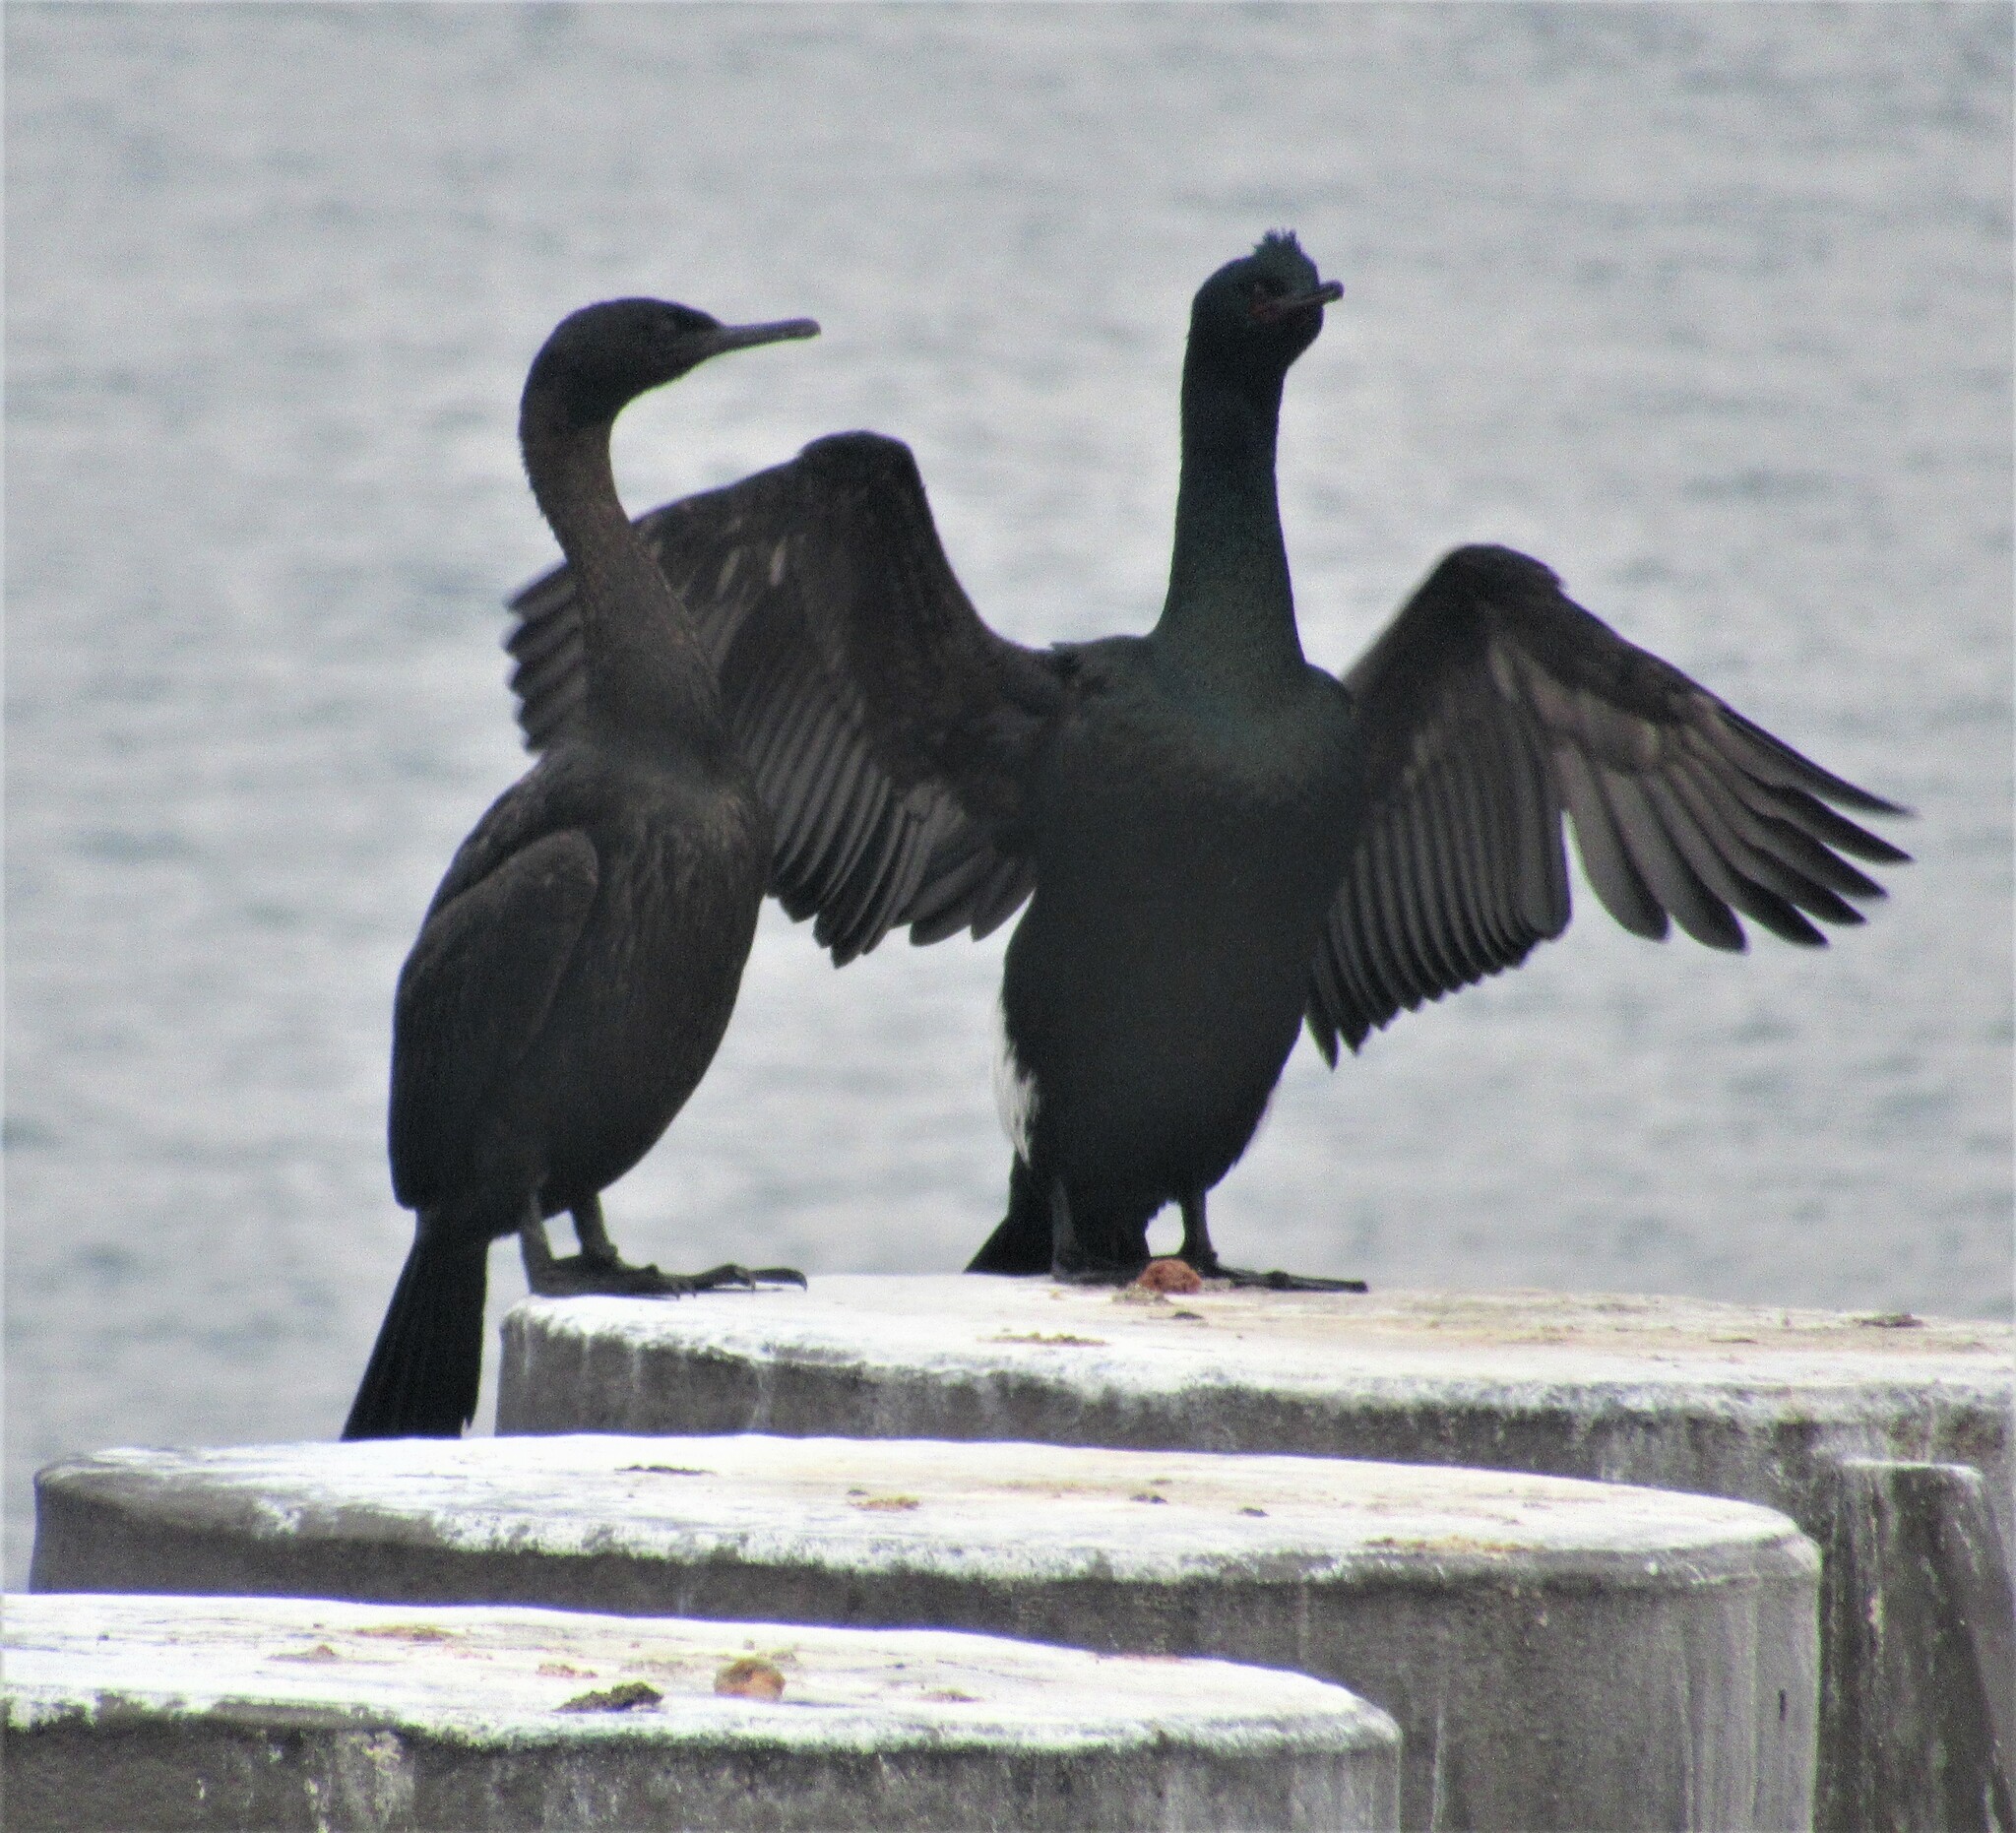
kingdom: Animalia
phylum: Chordata
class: Aves
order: Suliformes
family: Phalacrocoracidae
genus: Phalacrocorax
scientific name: Phalacrocorax pelagicus
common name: Pelagic cormorant
